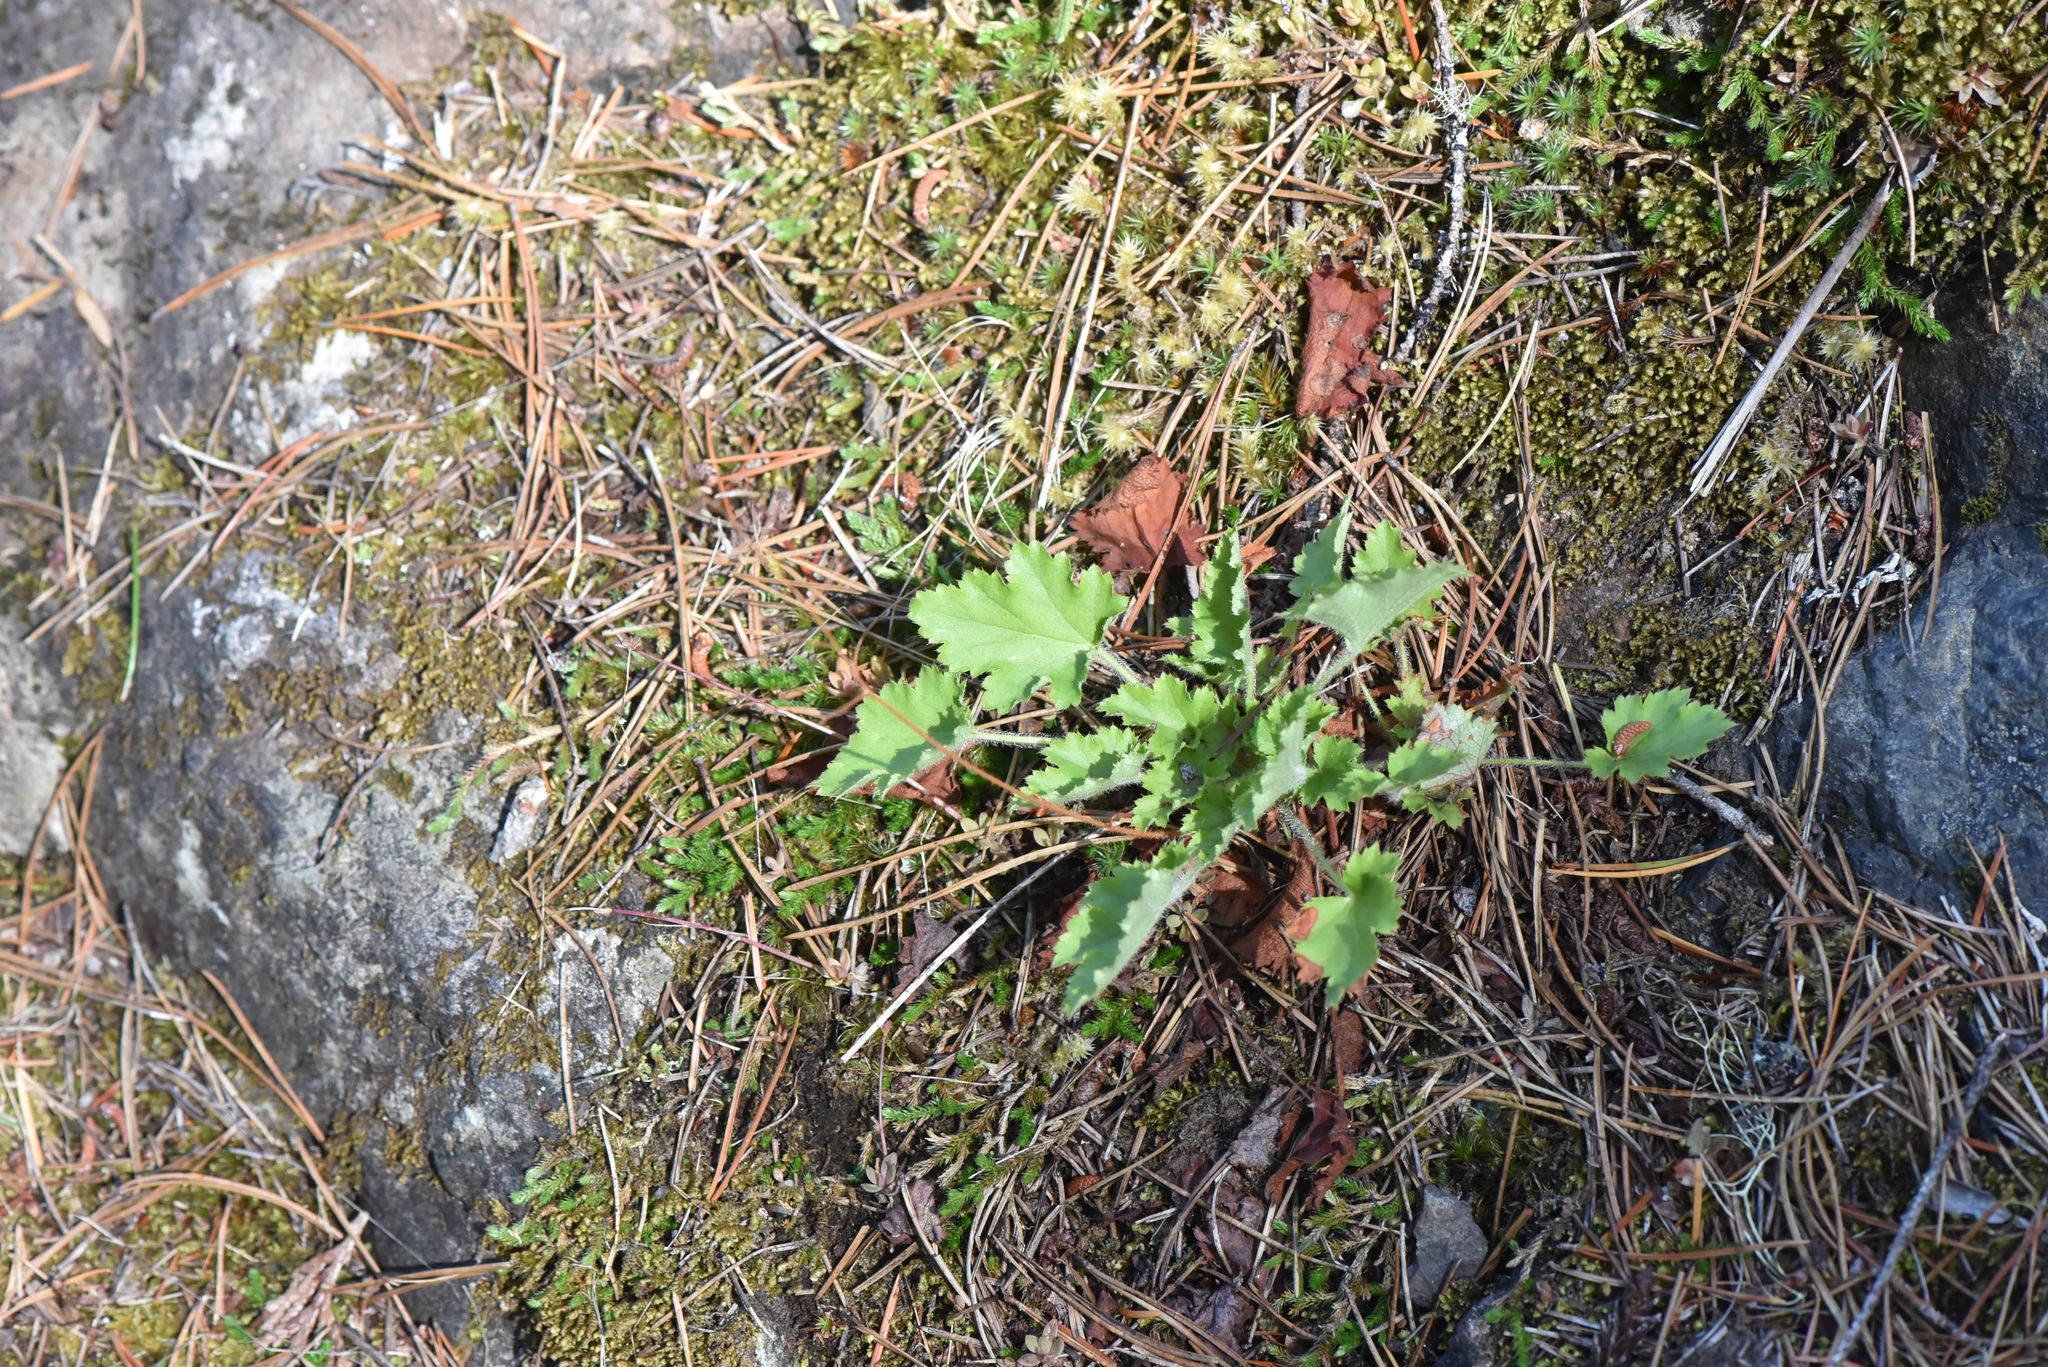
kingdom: Plantae
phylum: Tracheophyta
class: Magnoliopsida
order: Saxifragales
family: Saxifragaceae
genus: Heuchera
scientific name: Heuchera micrantha
